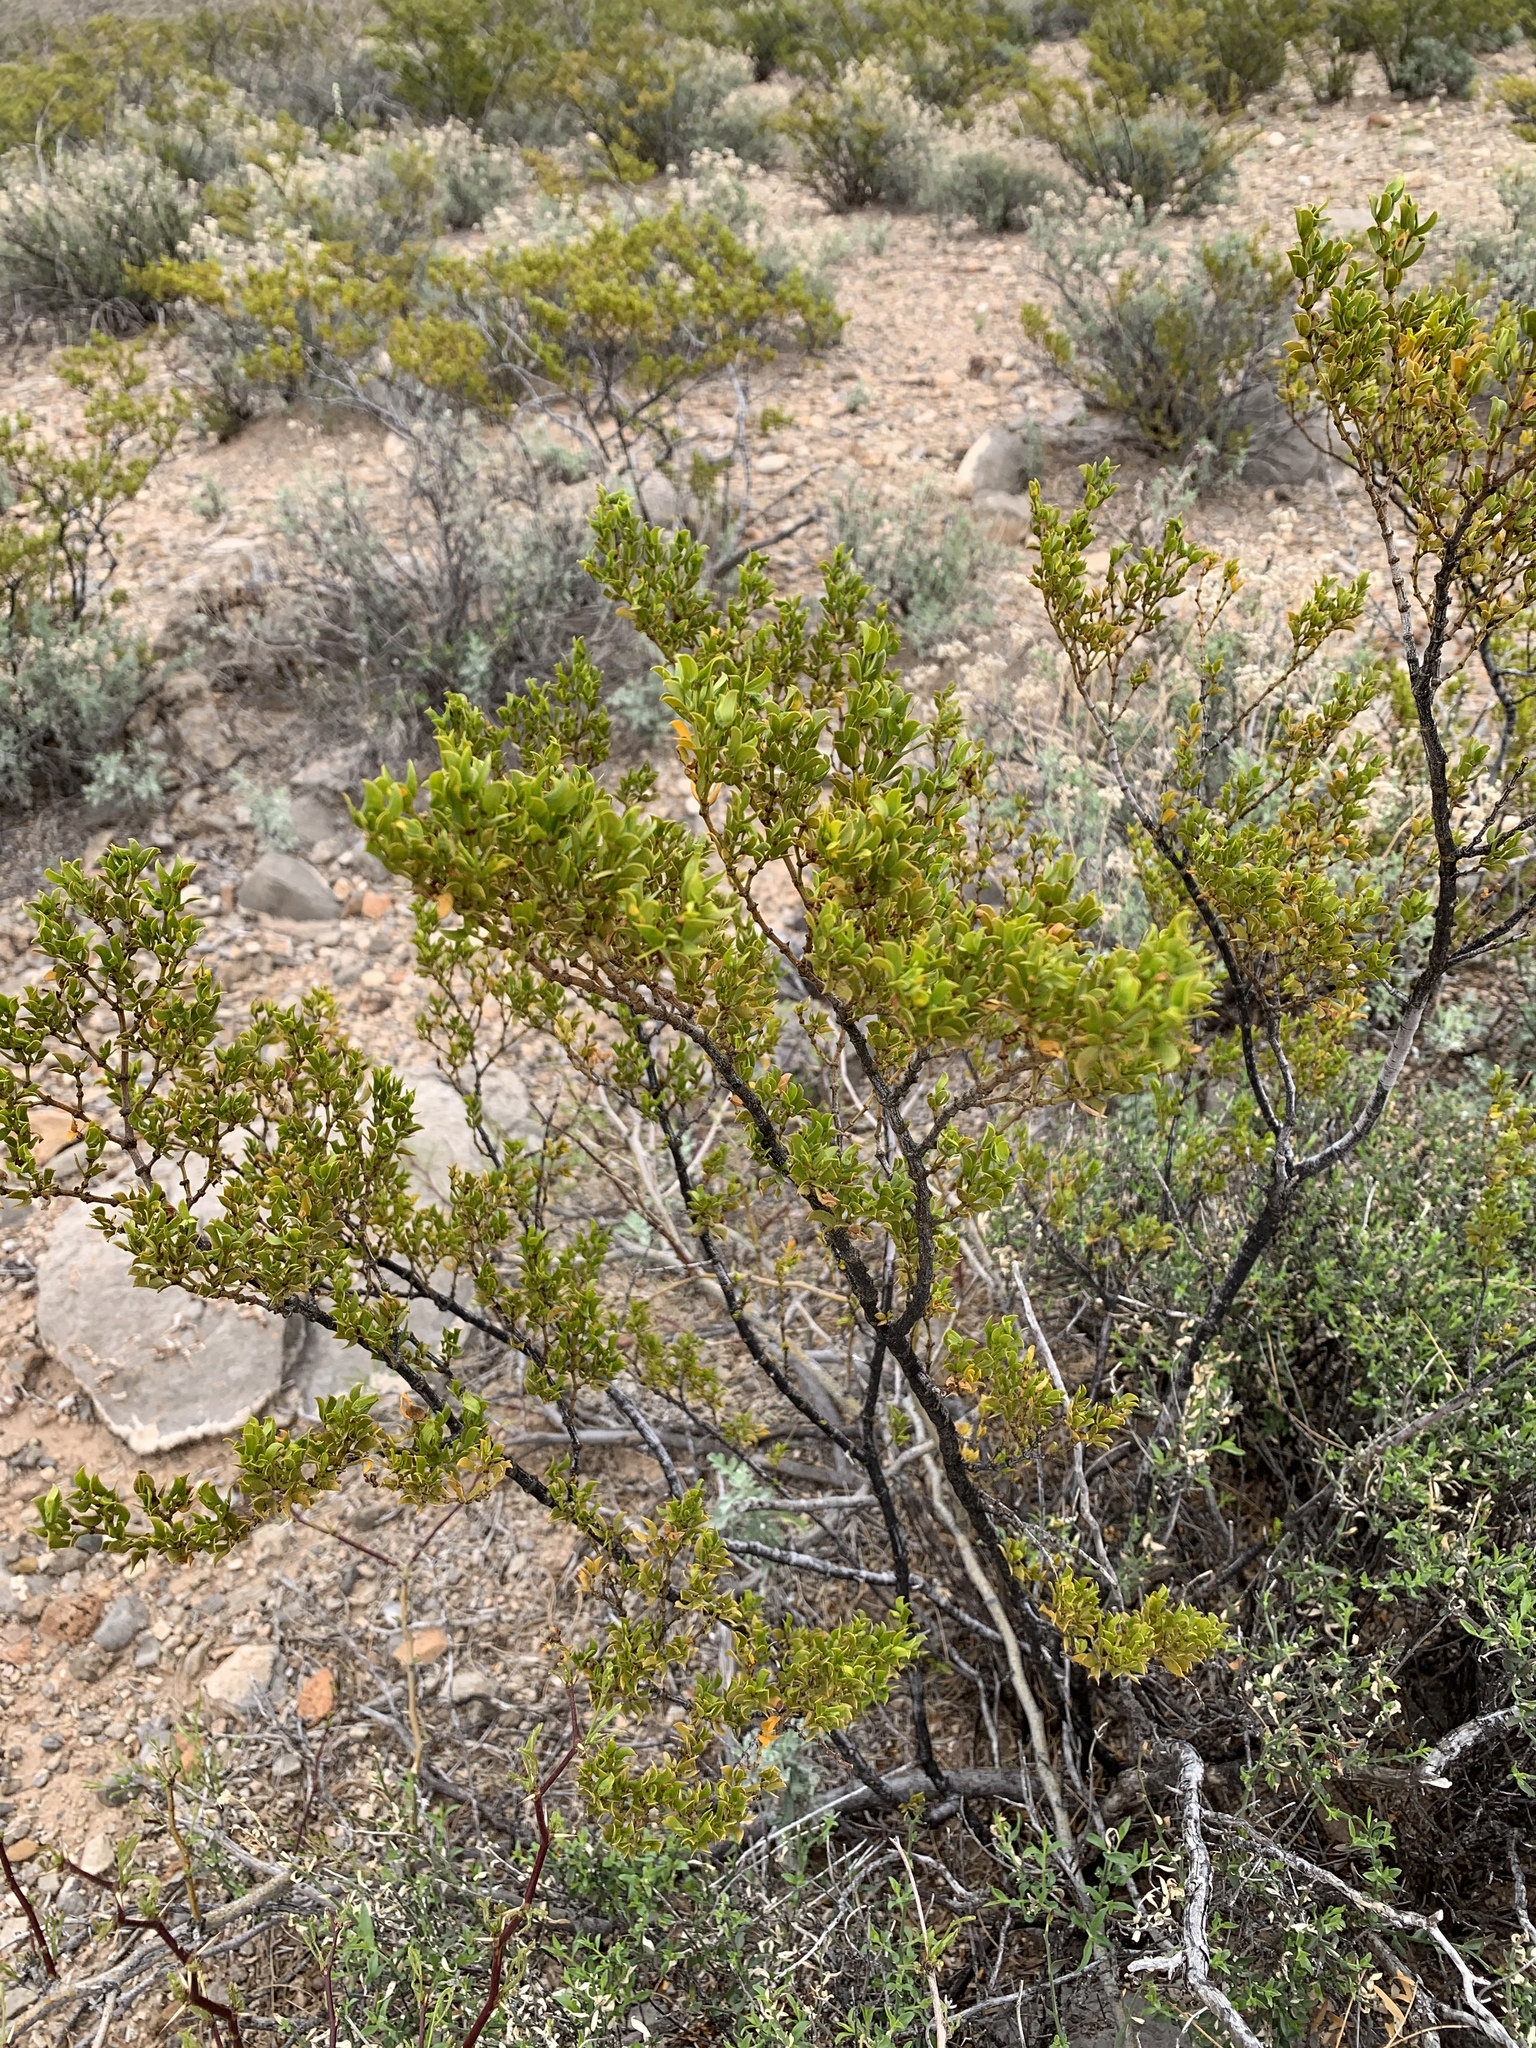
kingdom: Plantae
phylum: Tracheophyta
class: Magnoliopsida
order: Zygophyllales
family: Zygophyllaceae
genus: Larrea
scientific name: Larrea tridentata
